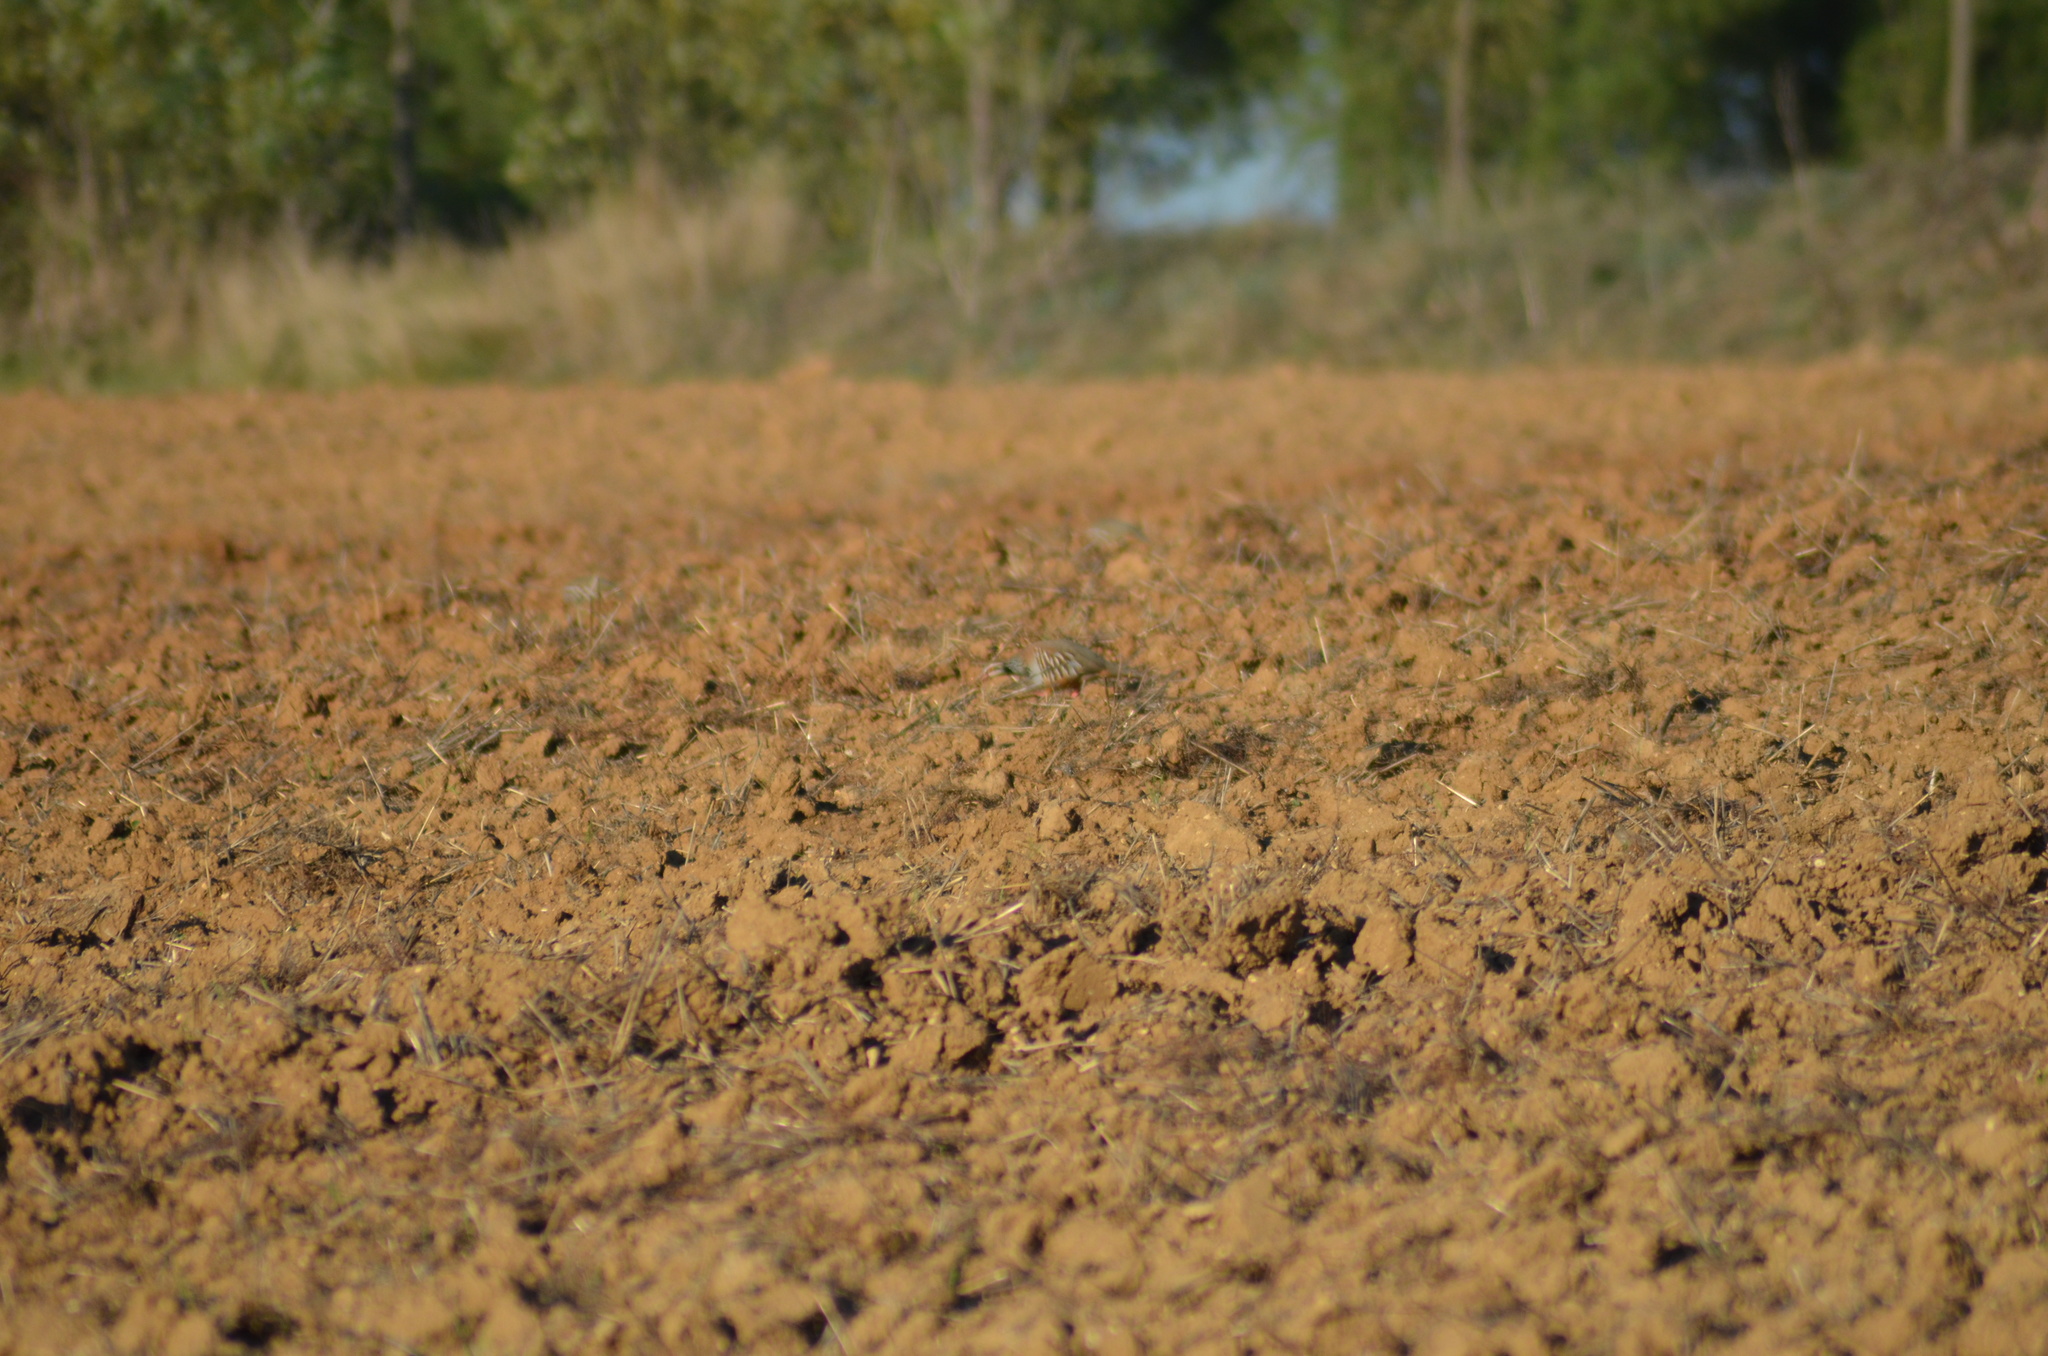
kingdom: Animalia
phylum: Chordata
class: Aves
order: Galliformes
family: Phasianidae
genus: Alectoris
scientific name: Alectoris rufa
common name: Red-legged partridge
